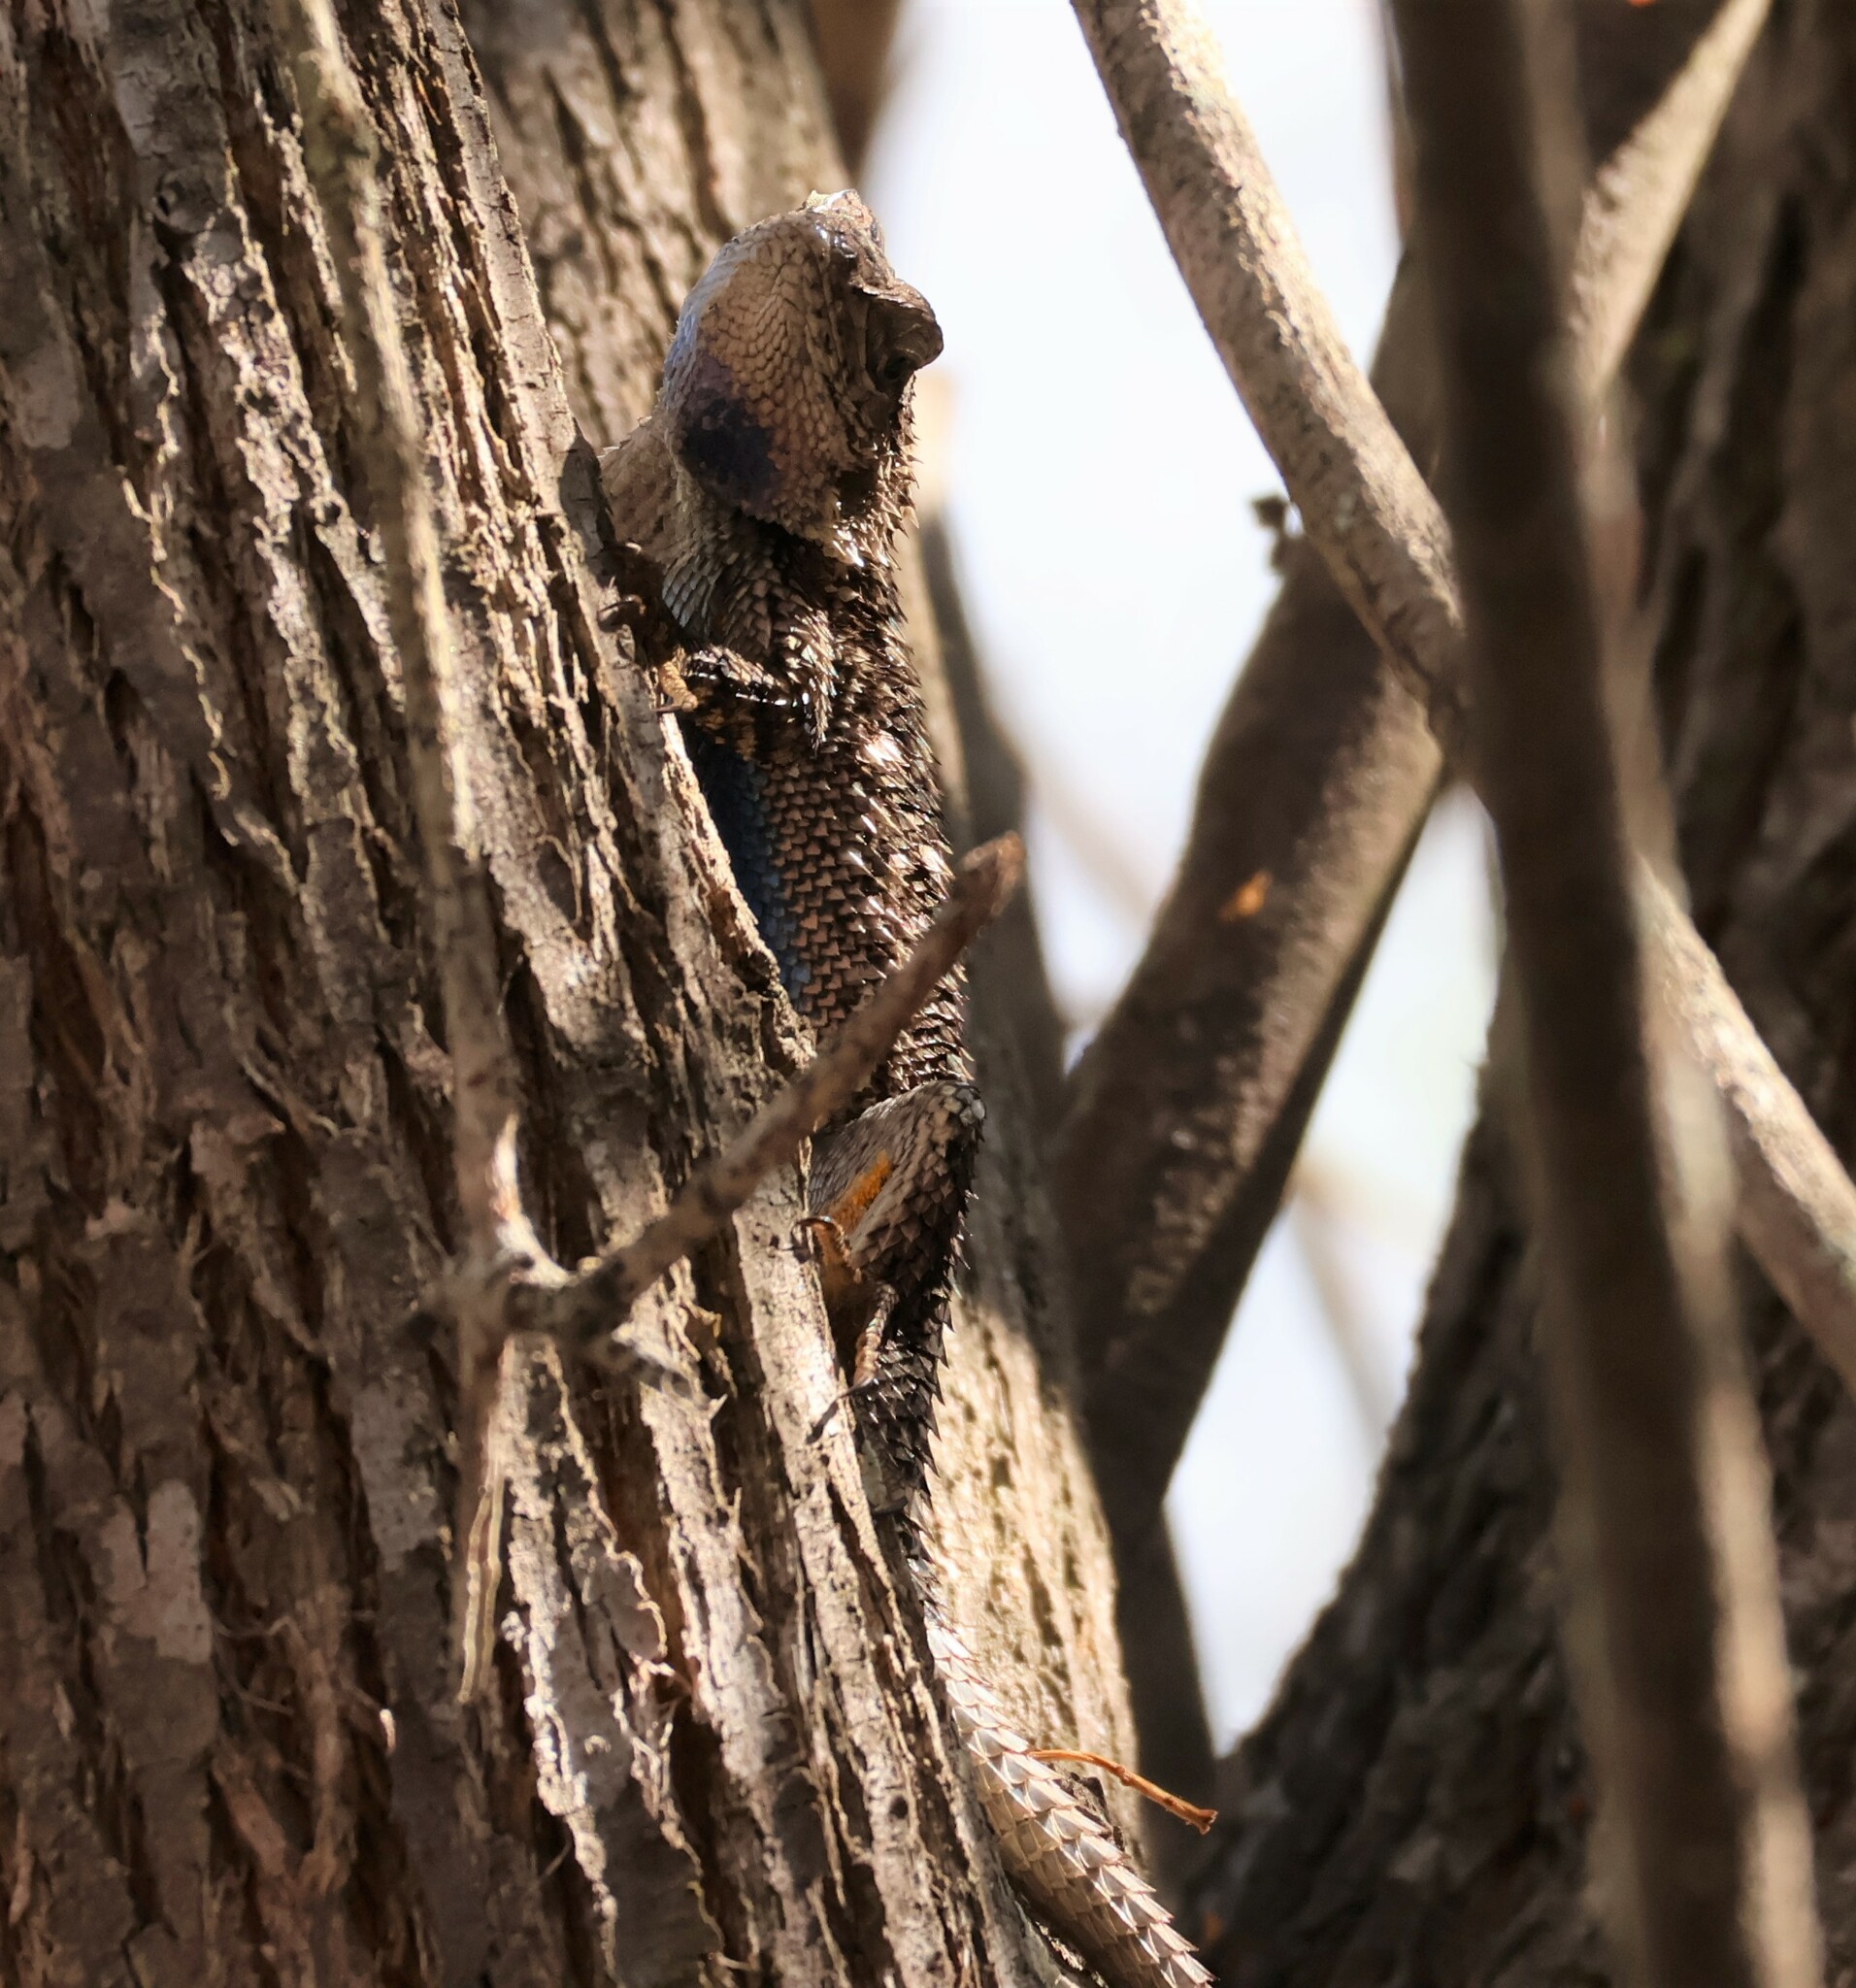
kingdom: Animalia
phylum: Chordata
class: Squamata
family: Phrynosomatidae
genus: Sceloporus
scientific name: Sceloporus occidentalis
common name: Western fence lizard
